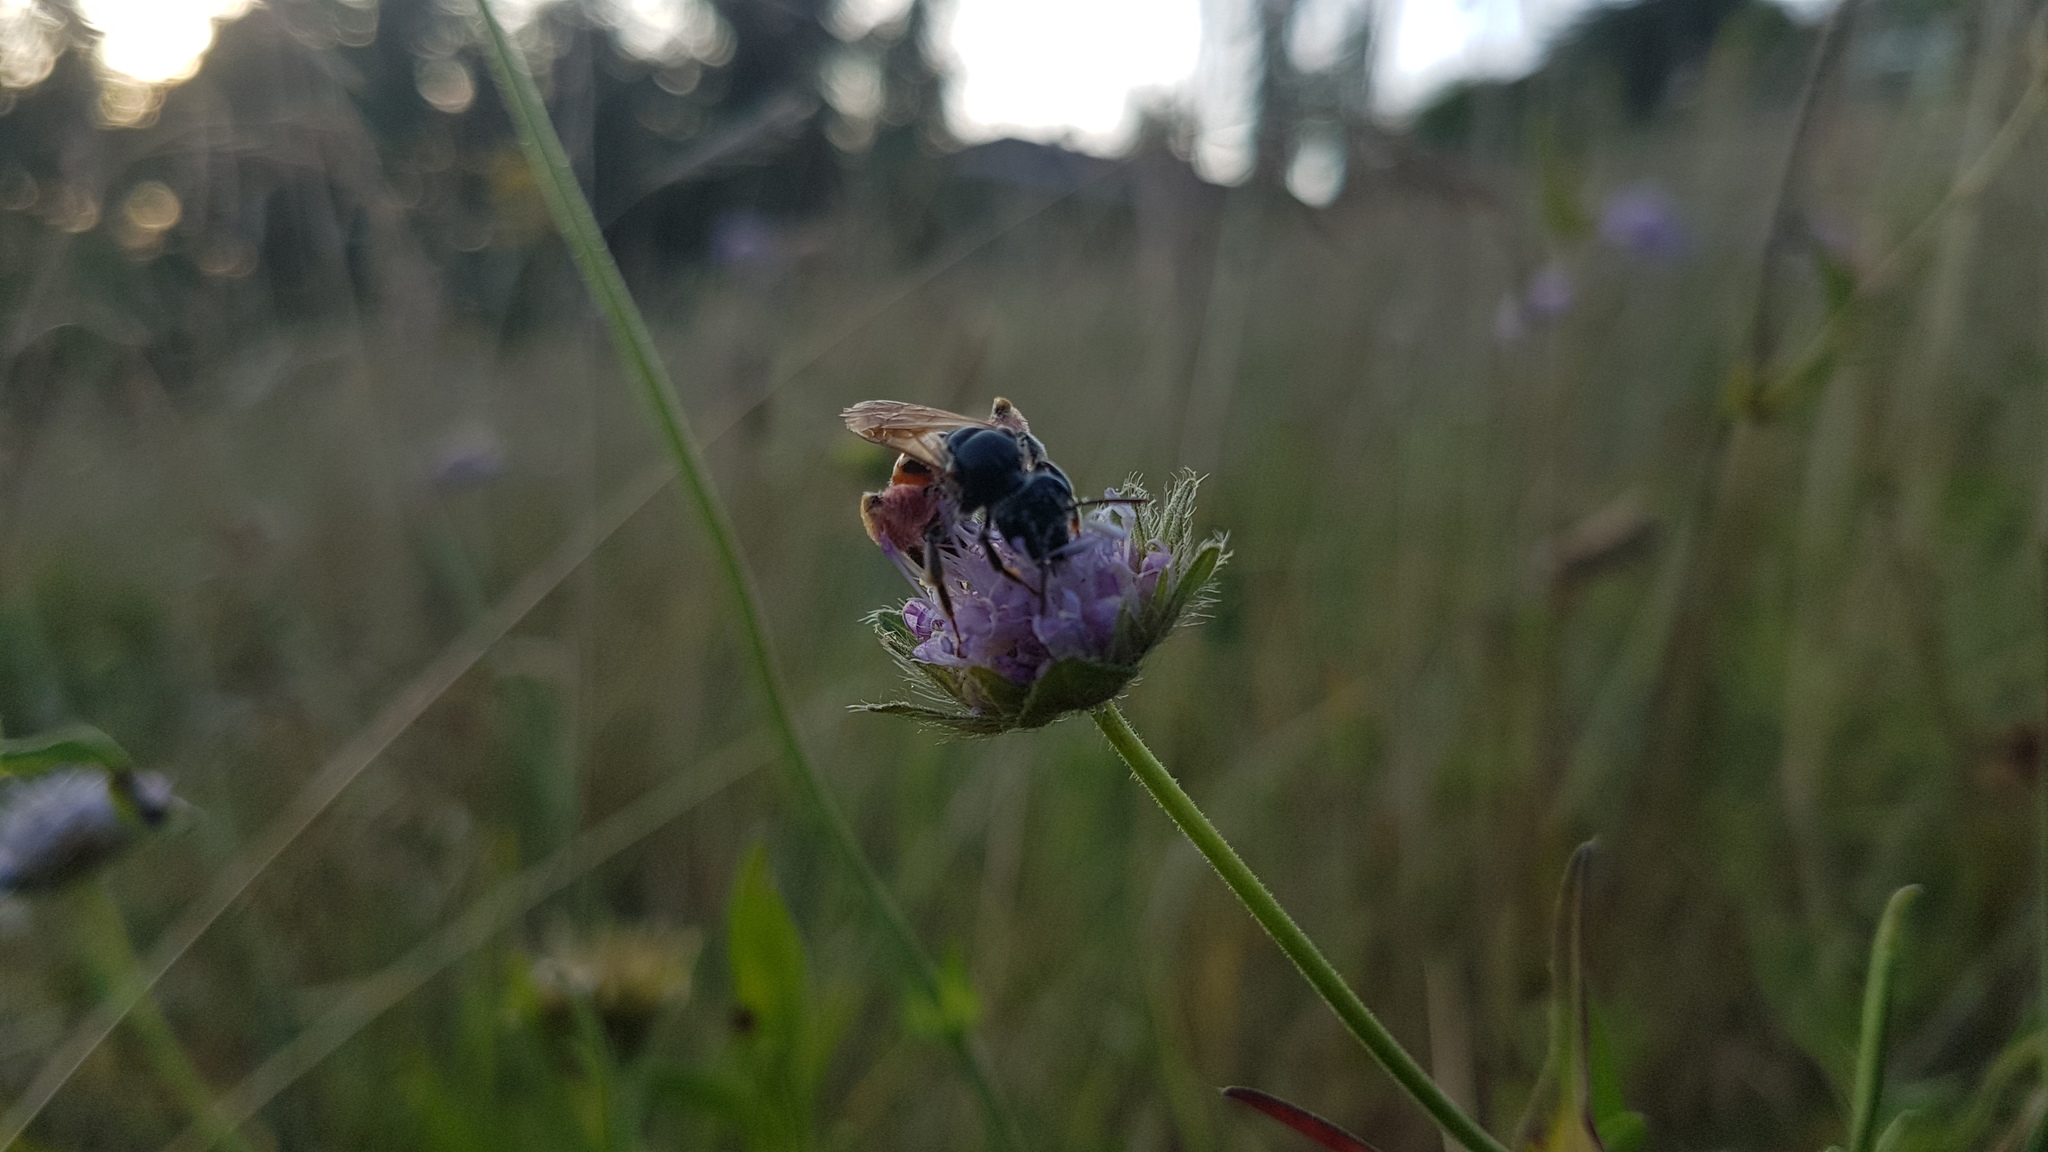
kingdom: Animalia
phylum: Arthropoda
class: Insecta
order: Hymenoptera
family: Andrenidae
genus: Andrena
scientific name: Andrena hattorfiana
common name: Large scabious mining bee
